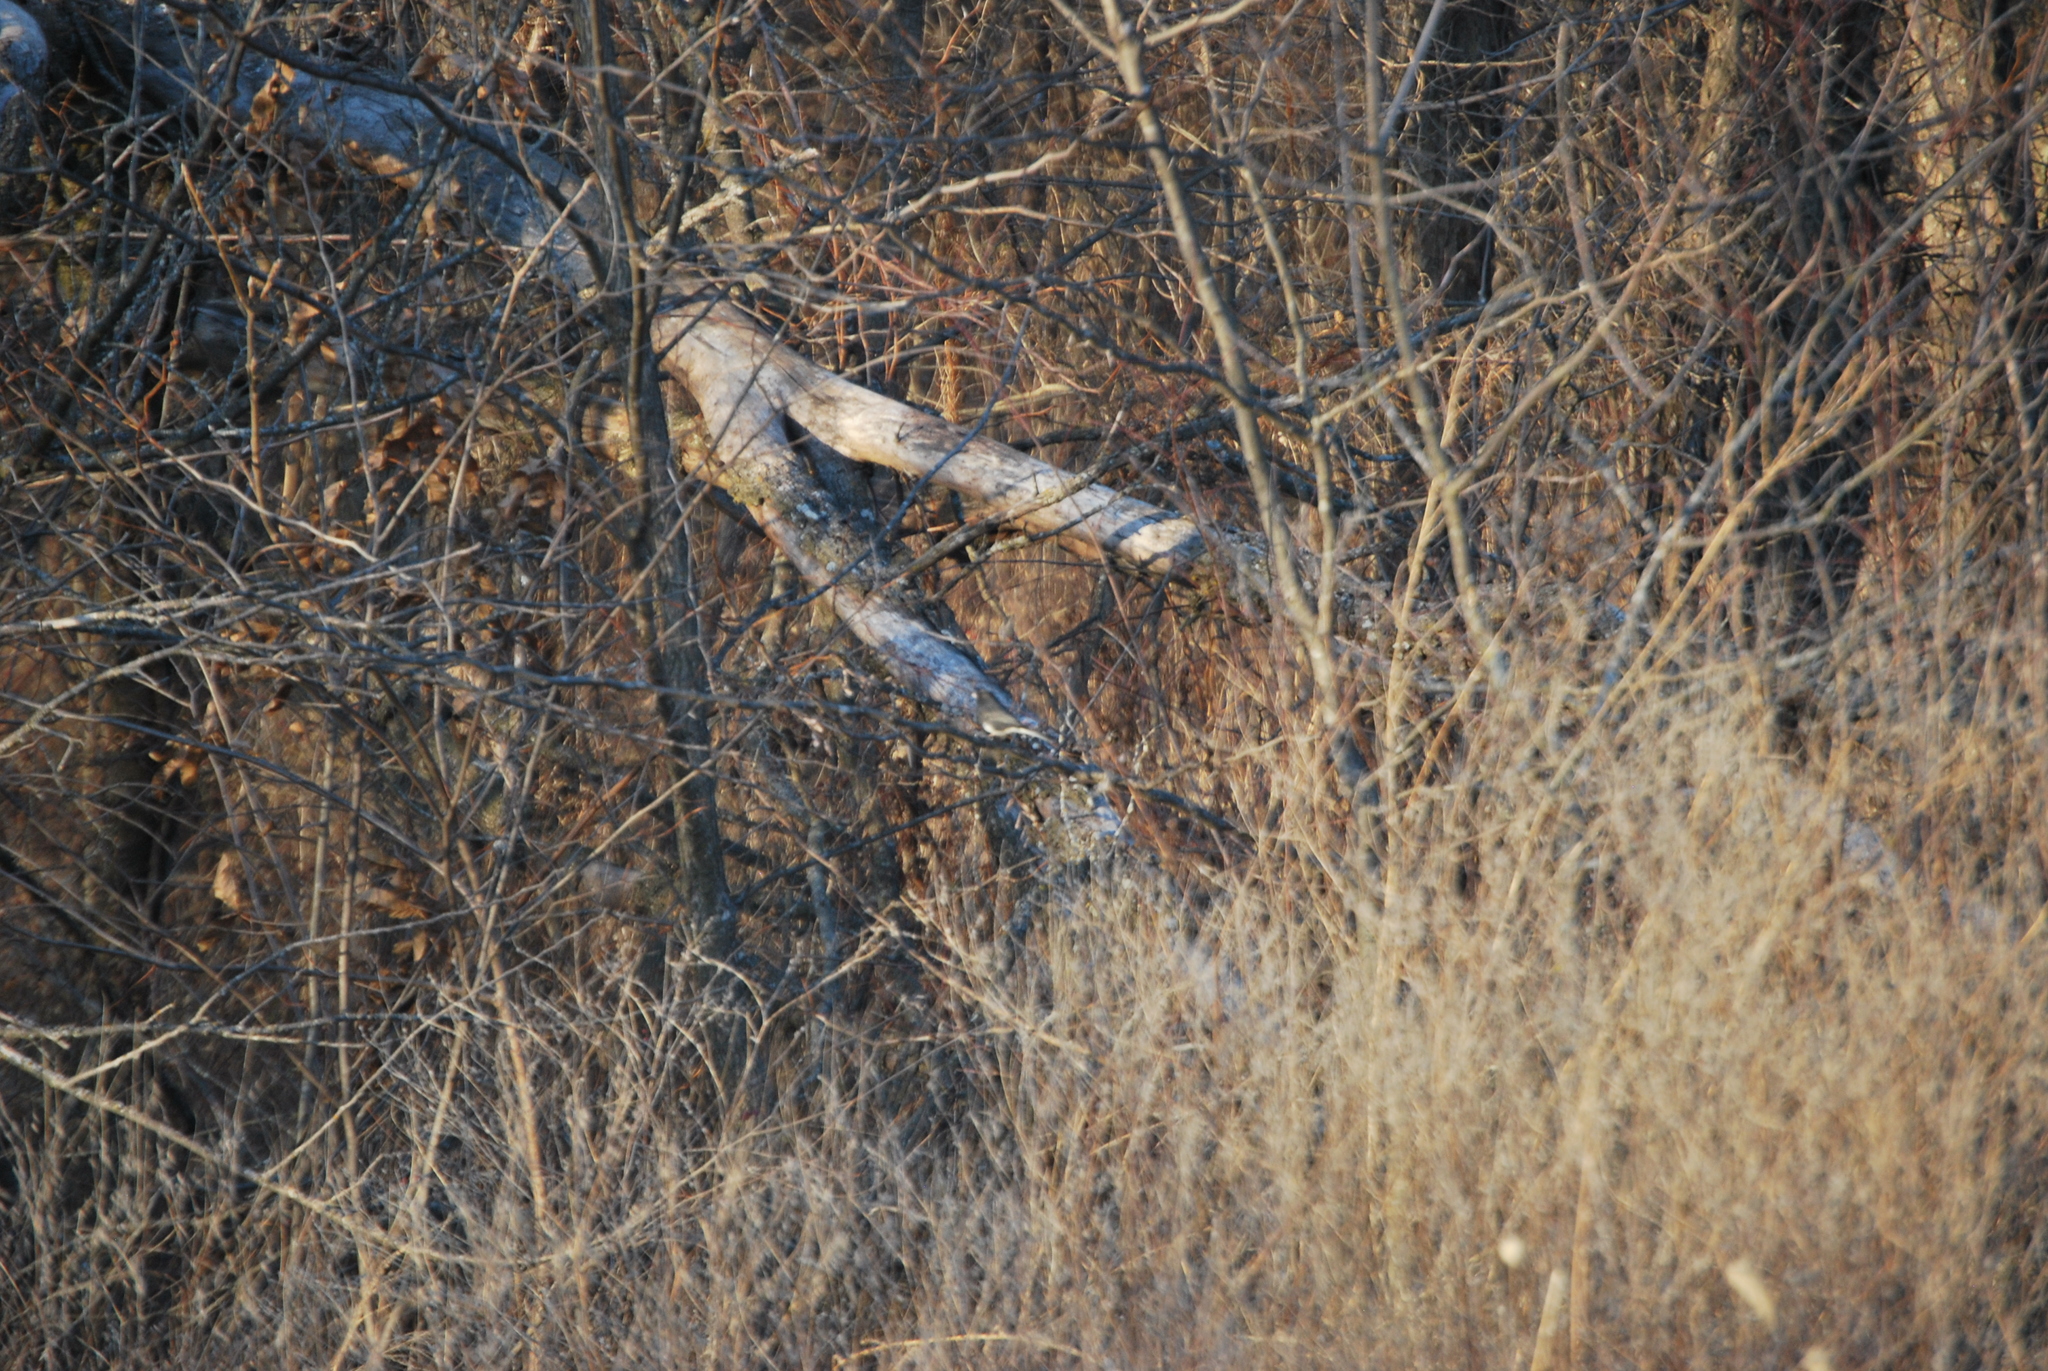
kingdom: Animalia
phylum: Chordata
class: Aves
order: Passeriformes
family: Passerellidae
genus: Junco
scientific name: Junco hyemalis
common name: Dark-eyed junco
